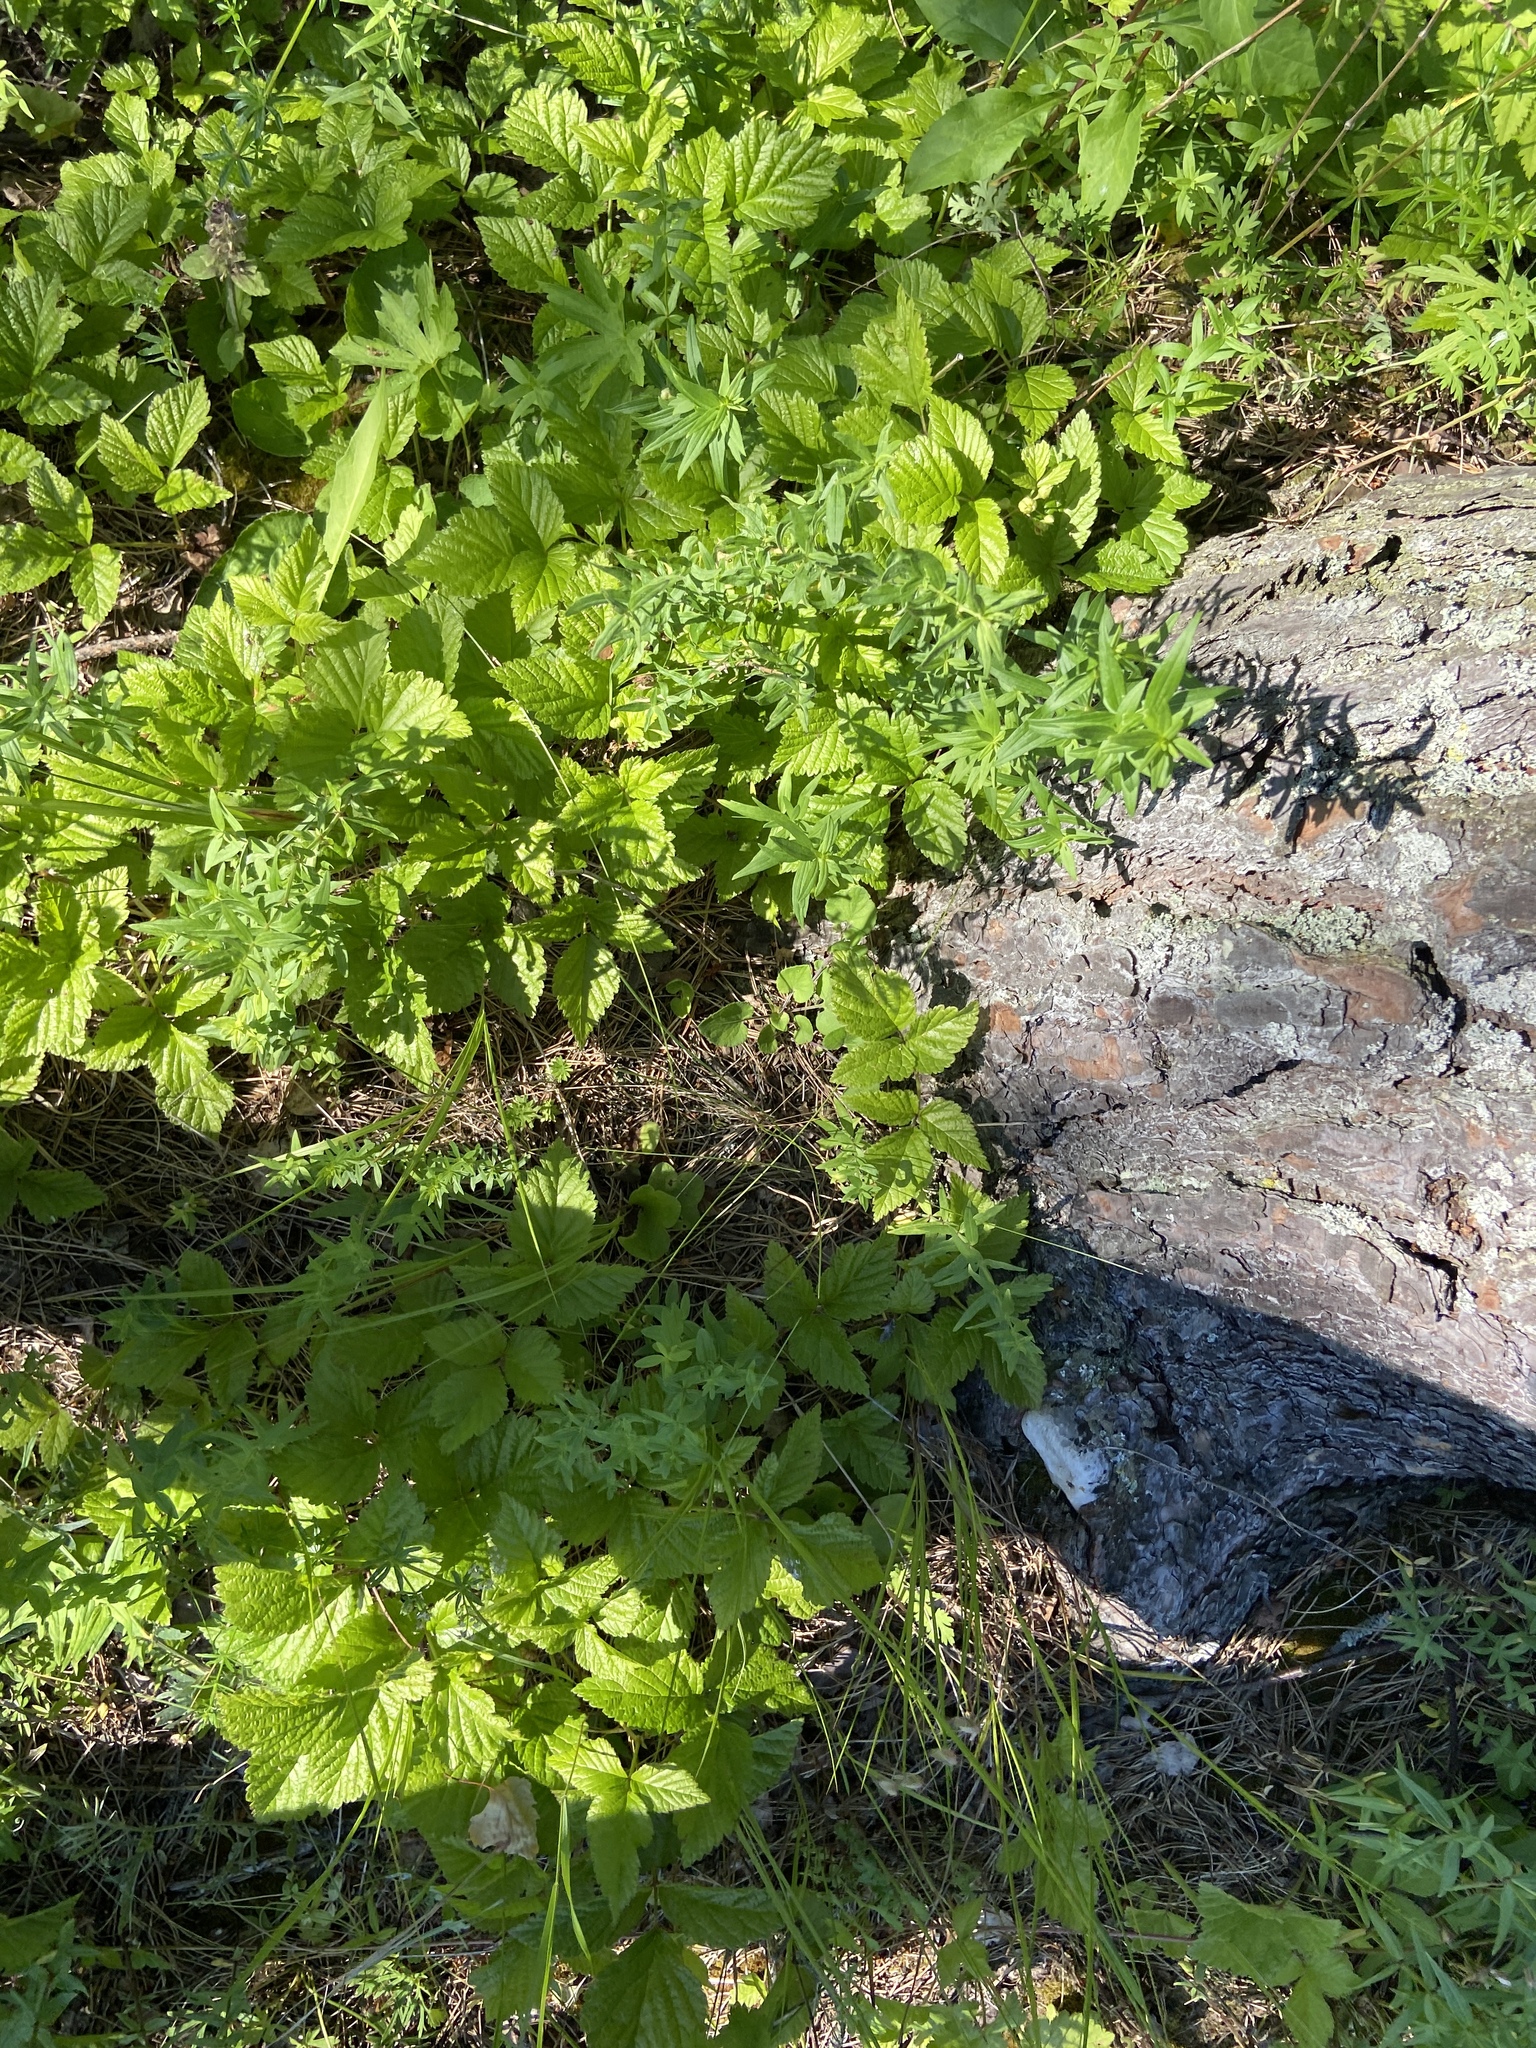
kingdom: Plantae
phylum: Tracheophyta
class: Magnoliopsida
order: Rosales
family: Rosaceae
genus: Rubus
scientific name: Rubus saxatilis
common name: Stone bramble
